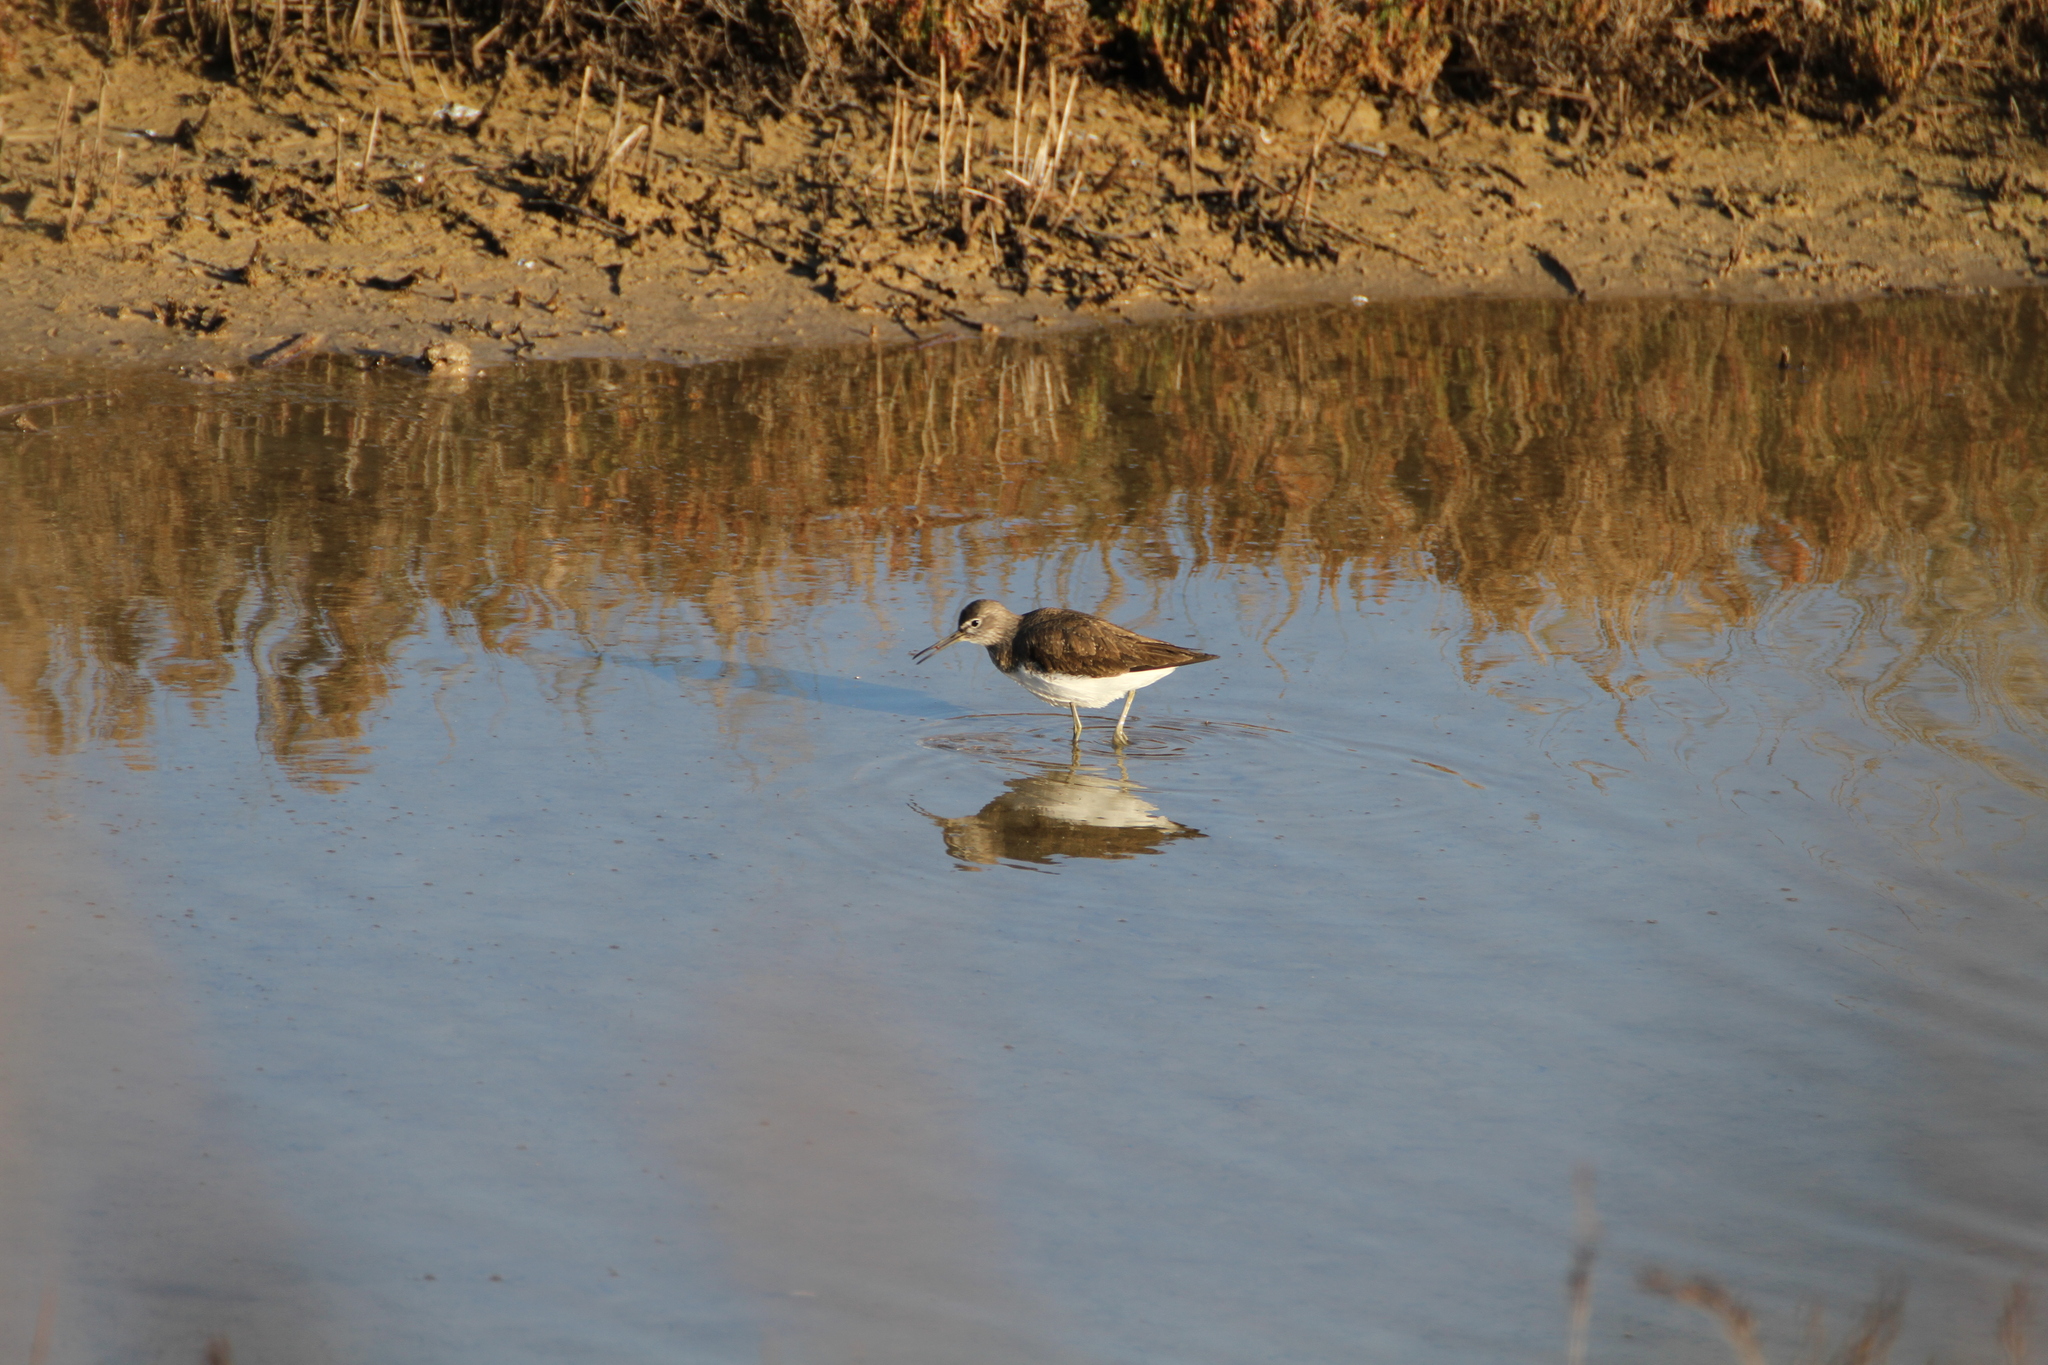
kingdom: Animalia
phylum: Chordata
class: Aves
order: Charadriiformes
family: Scolopacidae
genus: Tringa
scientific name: Tringa ochropus
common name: Green sandpiper
